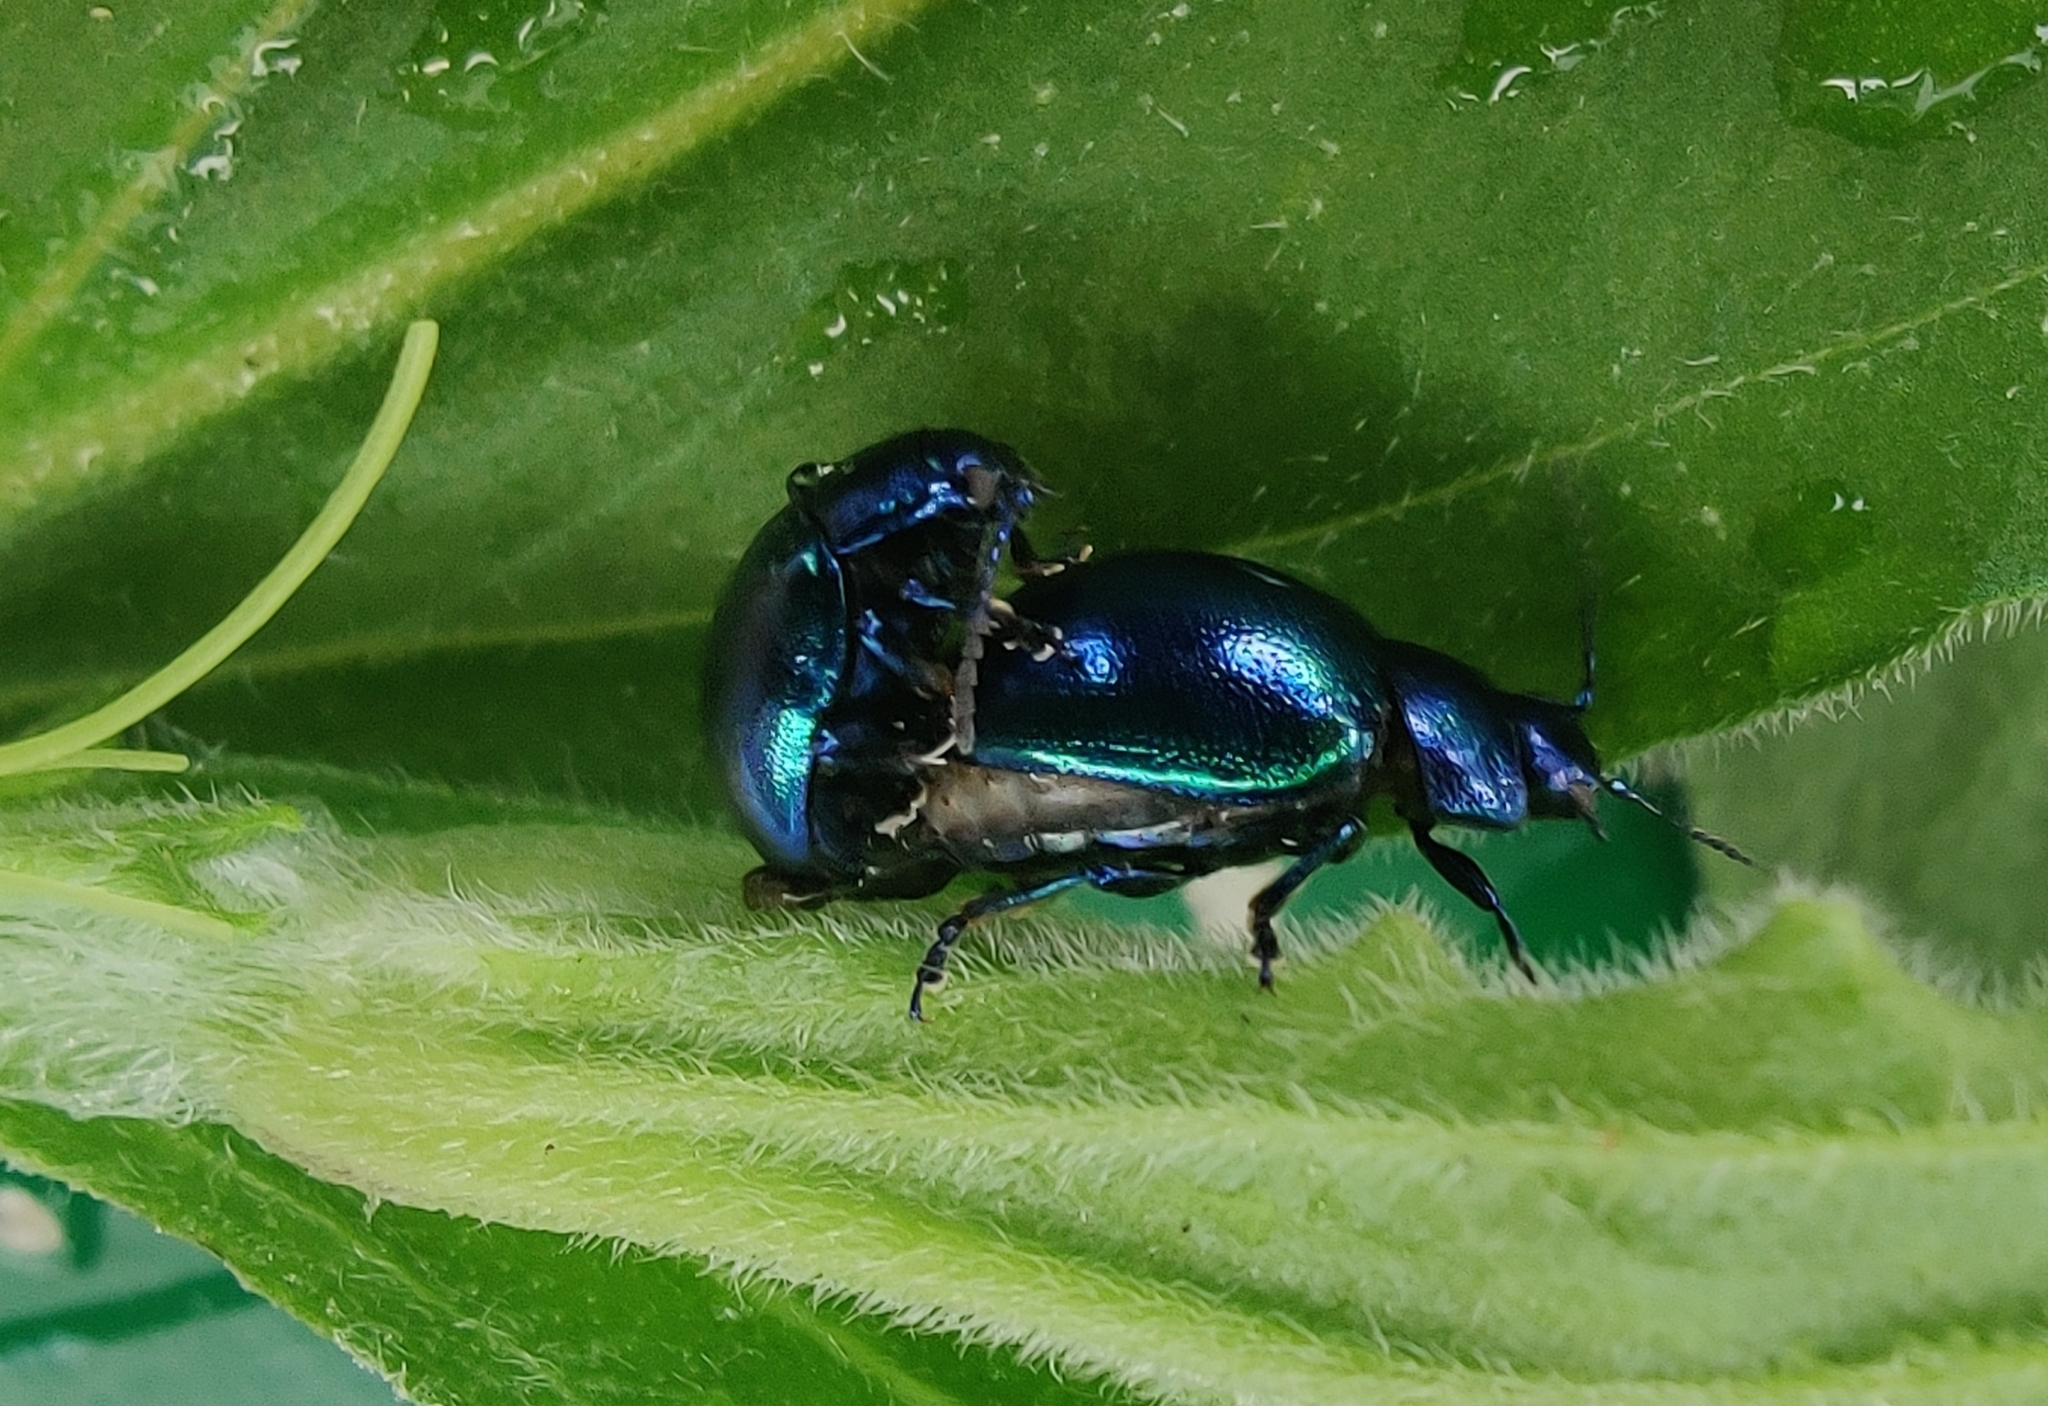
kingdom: Animalia
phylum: Arthropoda
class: Insecta
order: Coleoptera
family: Chrysomelidae
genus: Chrysolina
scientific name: Chrysolina coerulans
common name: Blue mint beetle
